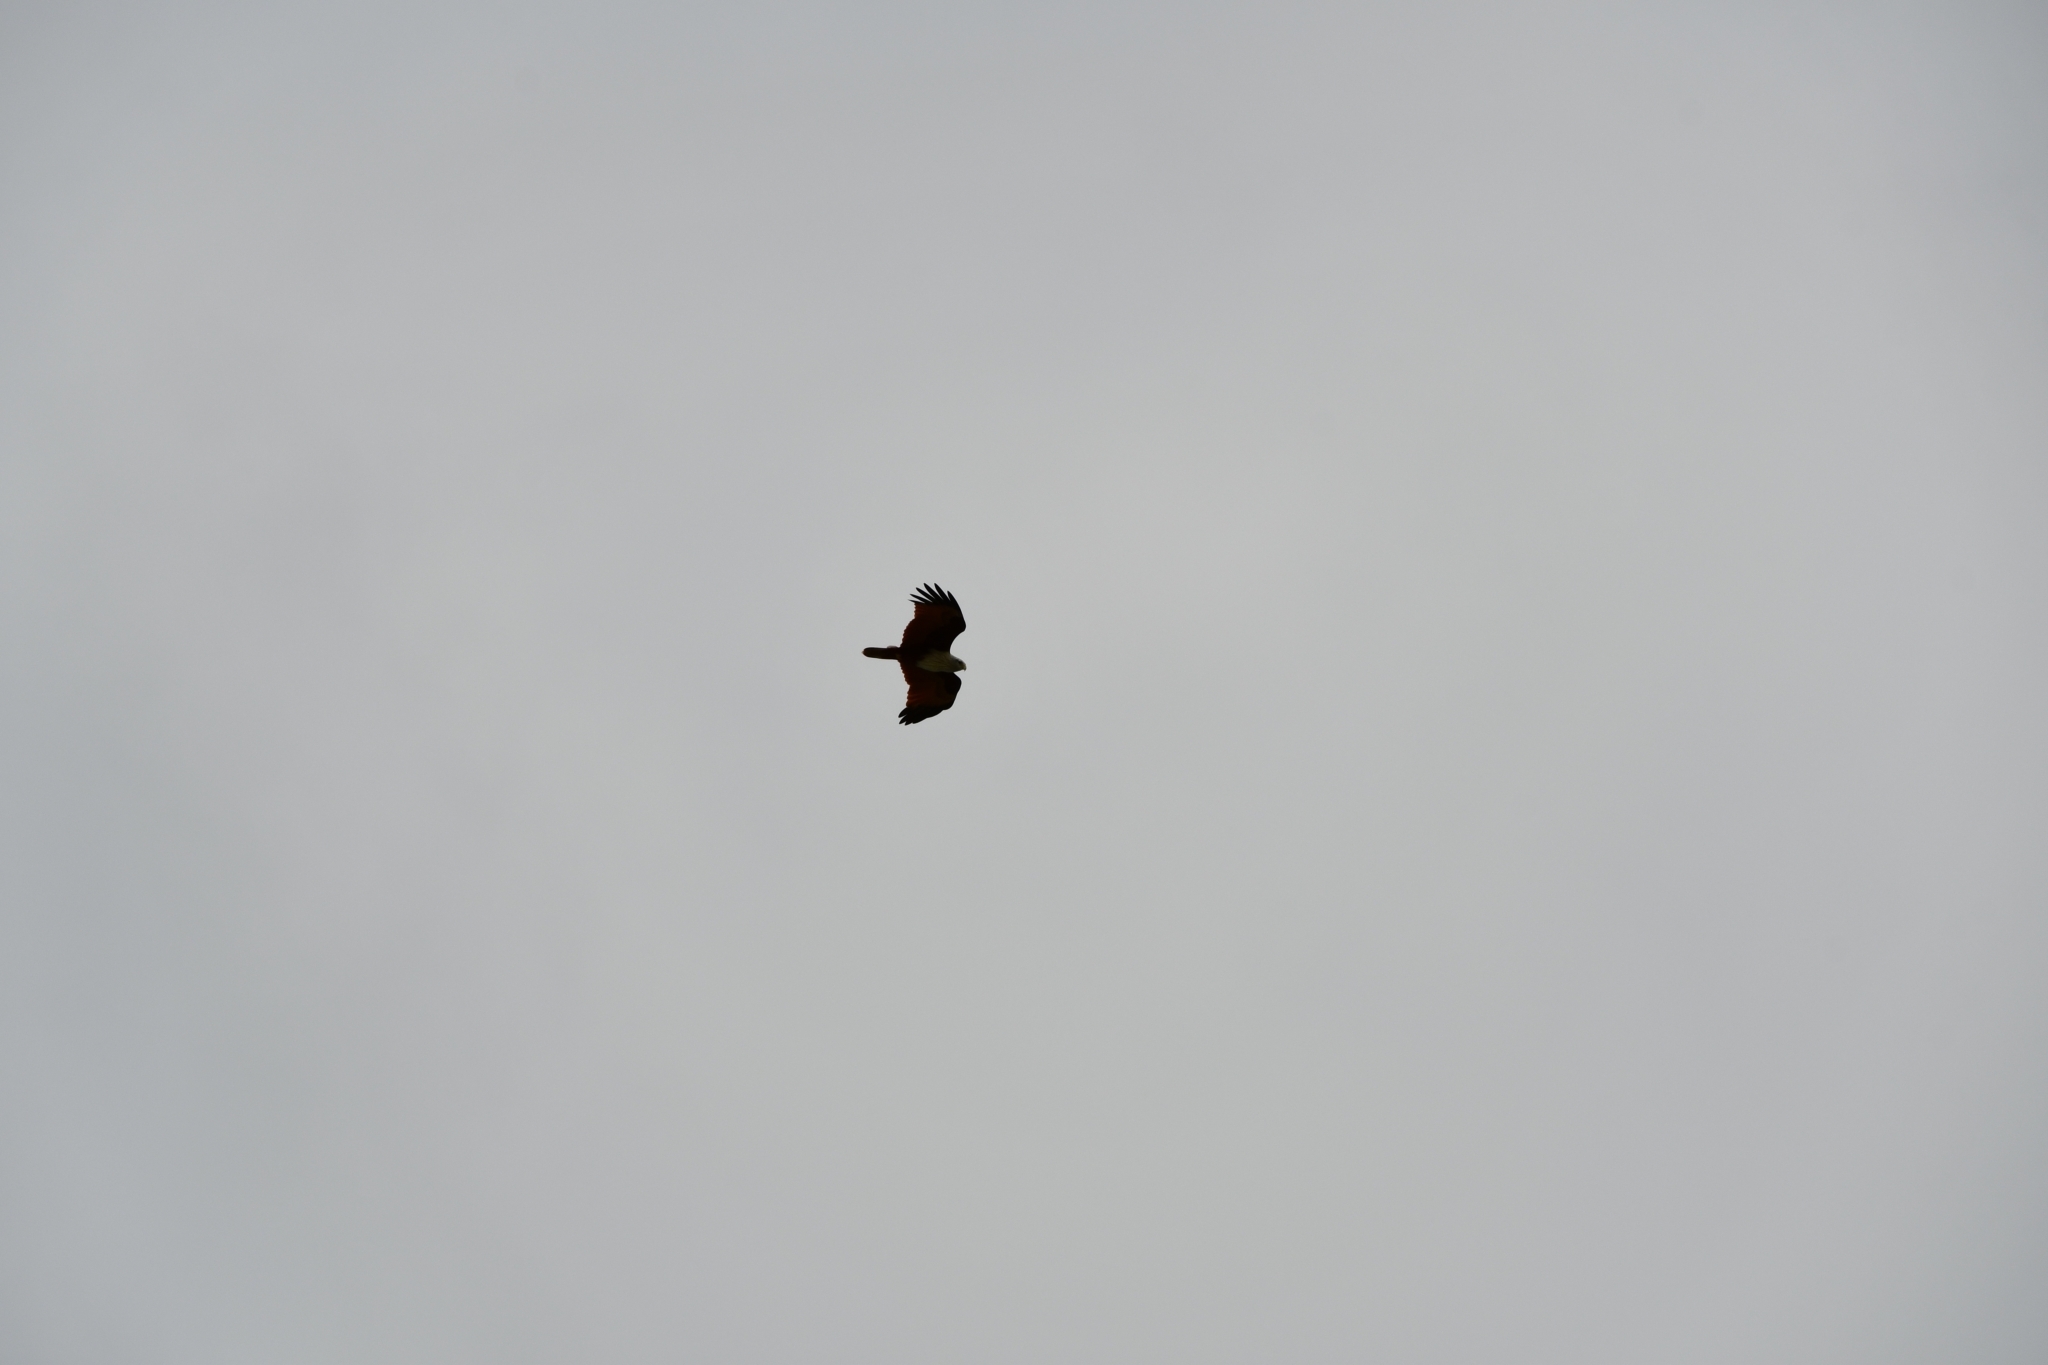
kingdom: Animalia
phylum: Chordata
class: Aves
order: Accipitriformes
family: Accipitridae
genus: Haliastur
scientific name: Haliastur indus
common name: Brahminy kite
